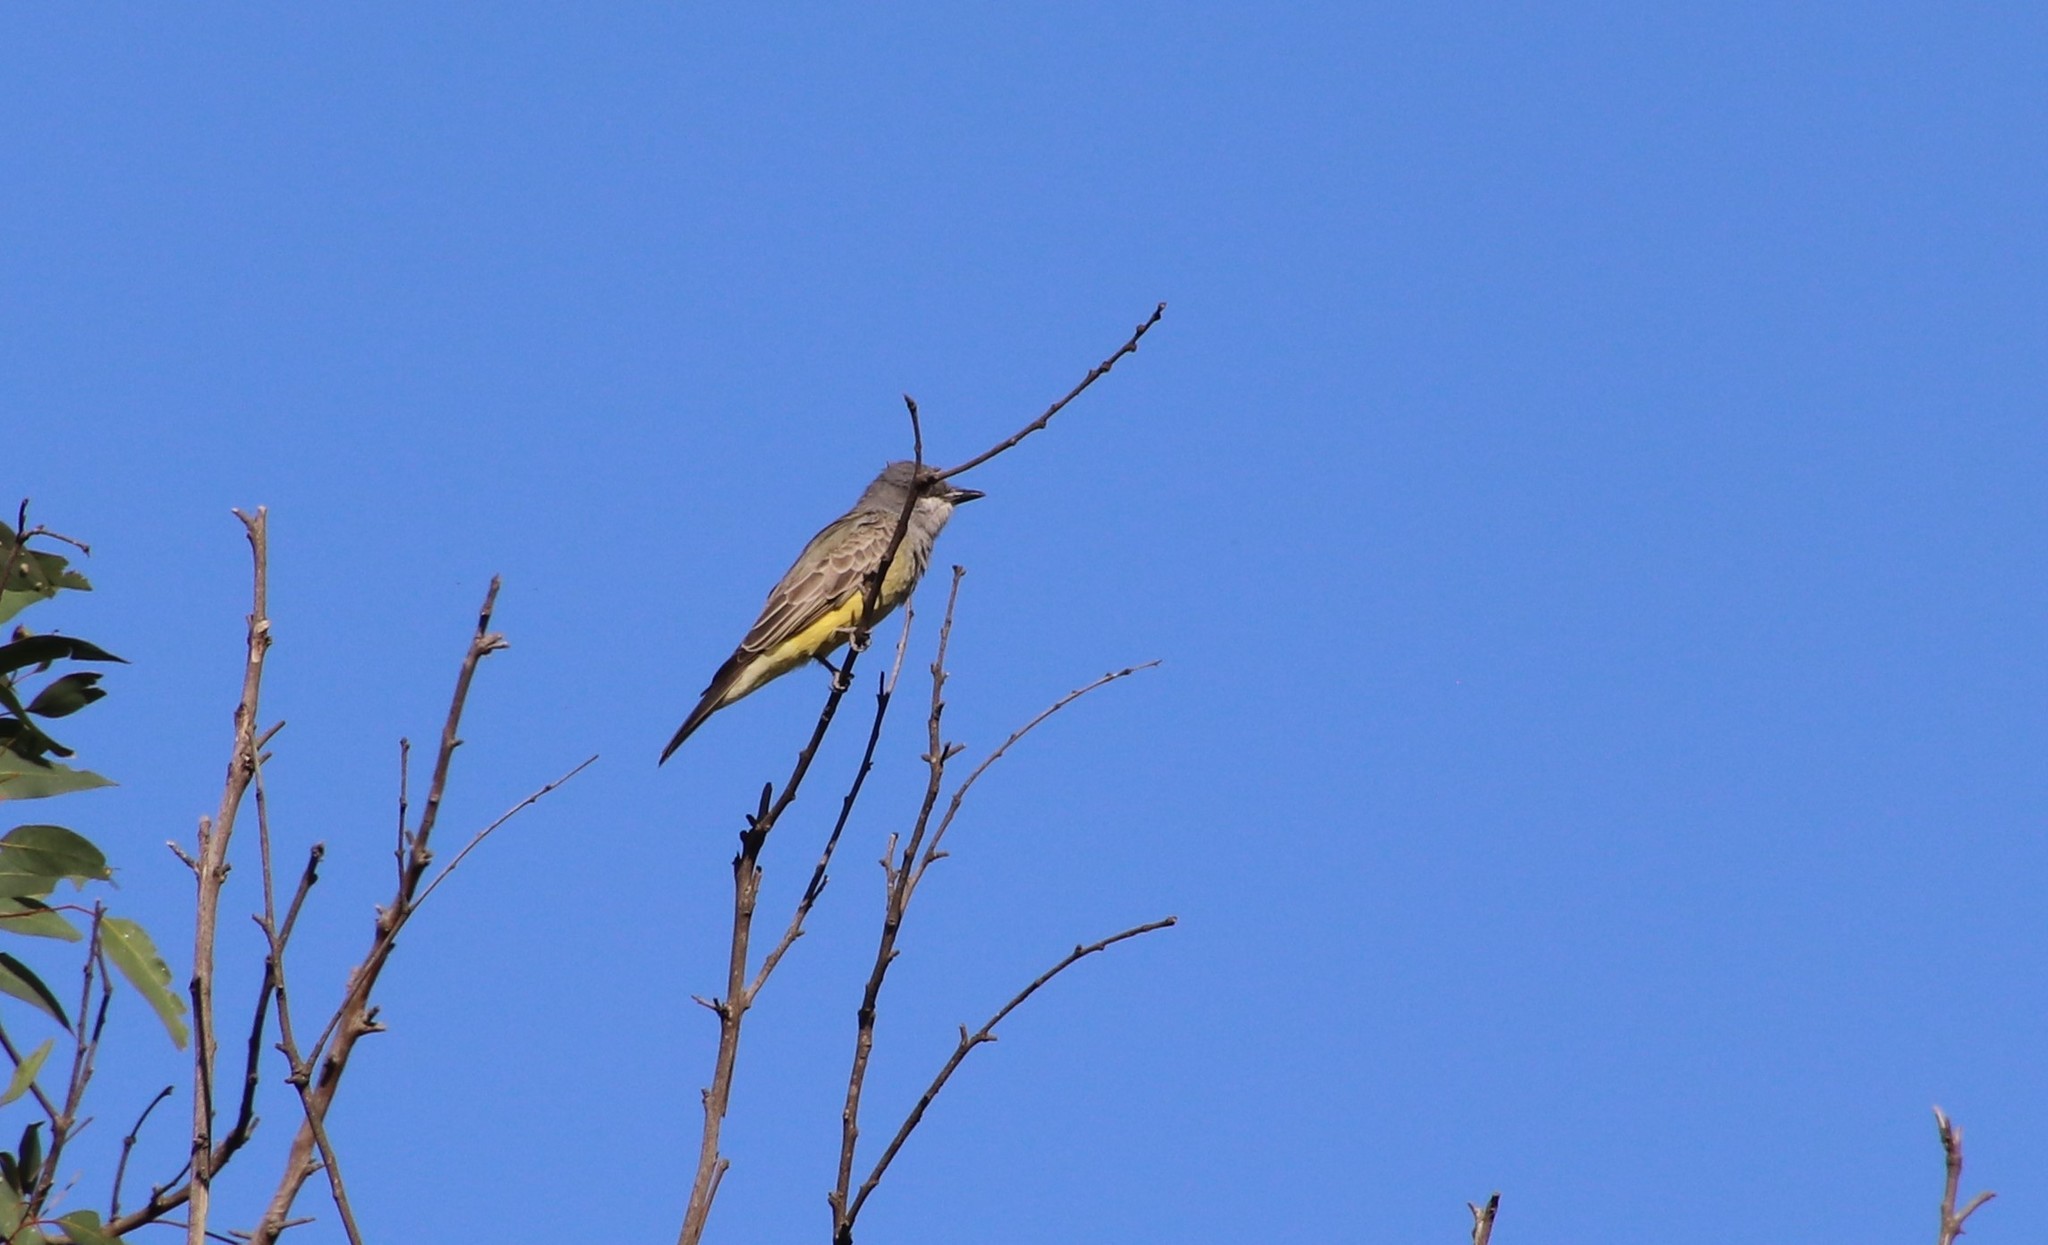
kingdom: Animalia
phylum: Chordata
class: Aves
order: Passeriformes
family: Tyrannidae
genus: Tyrannus
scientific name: Tyrannus vociferans
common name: Cassin's kingbird
